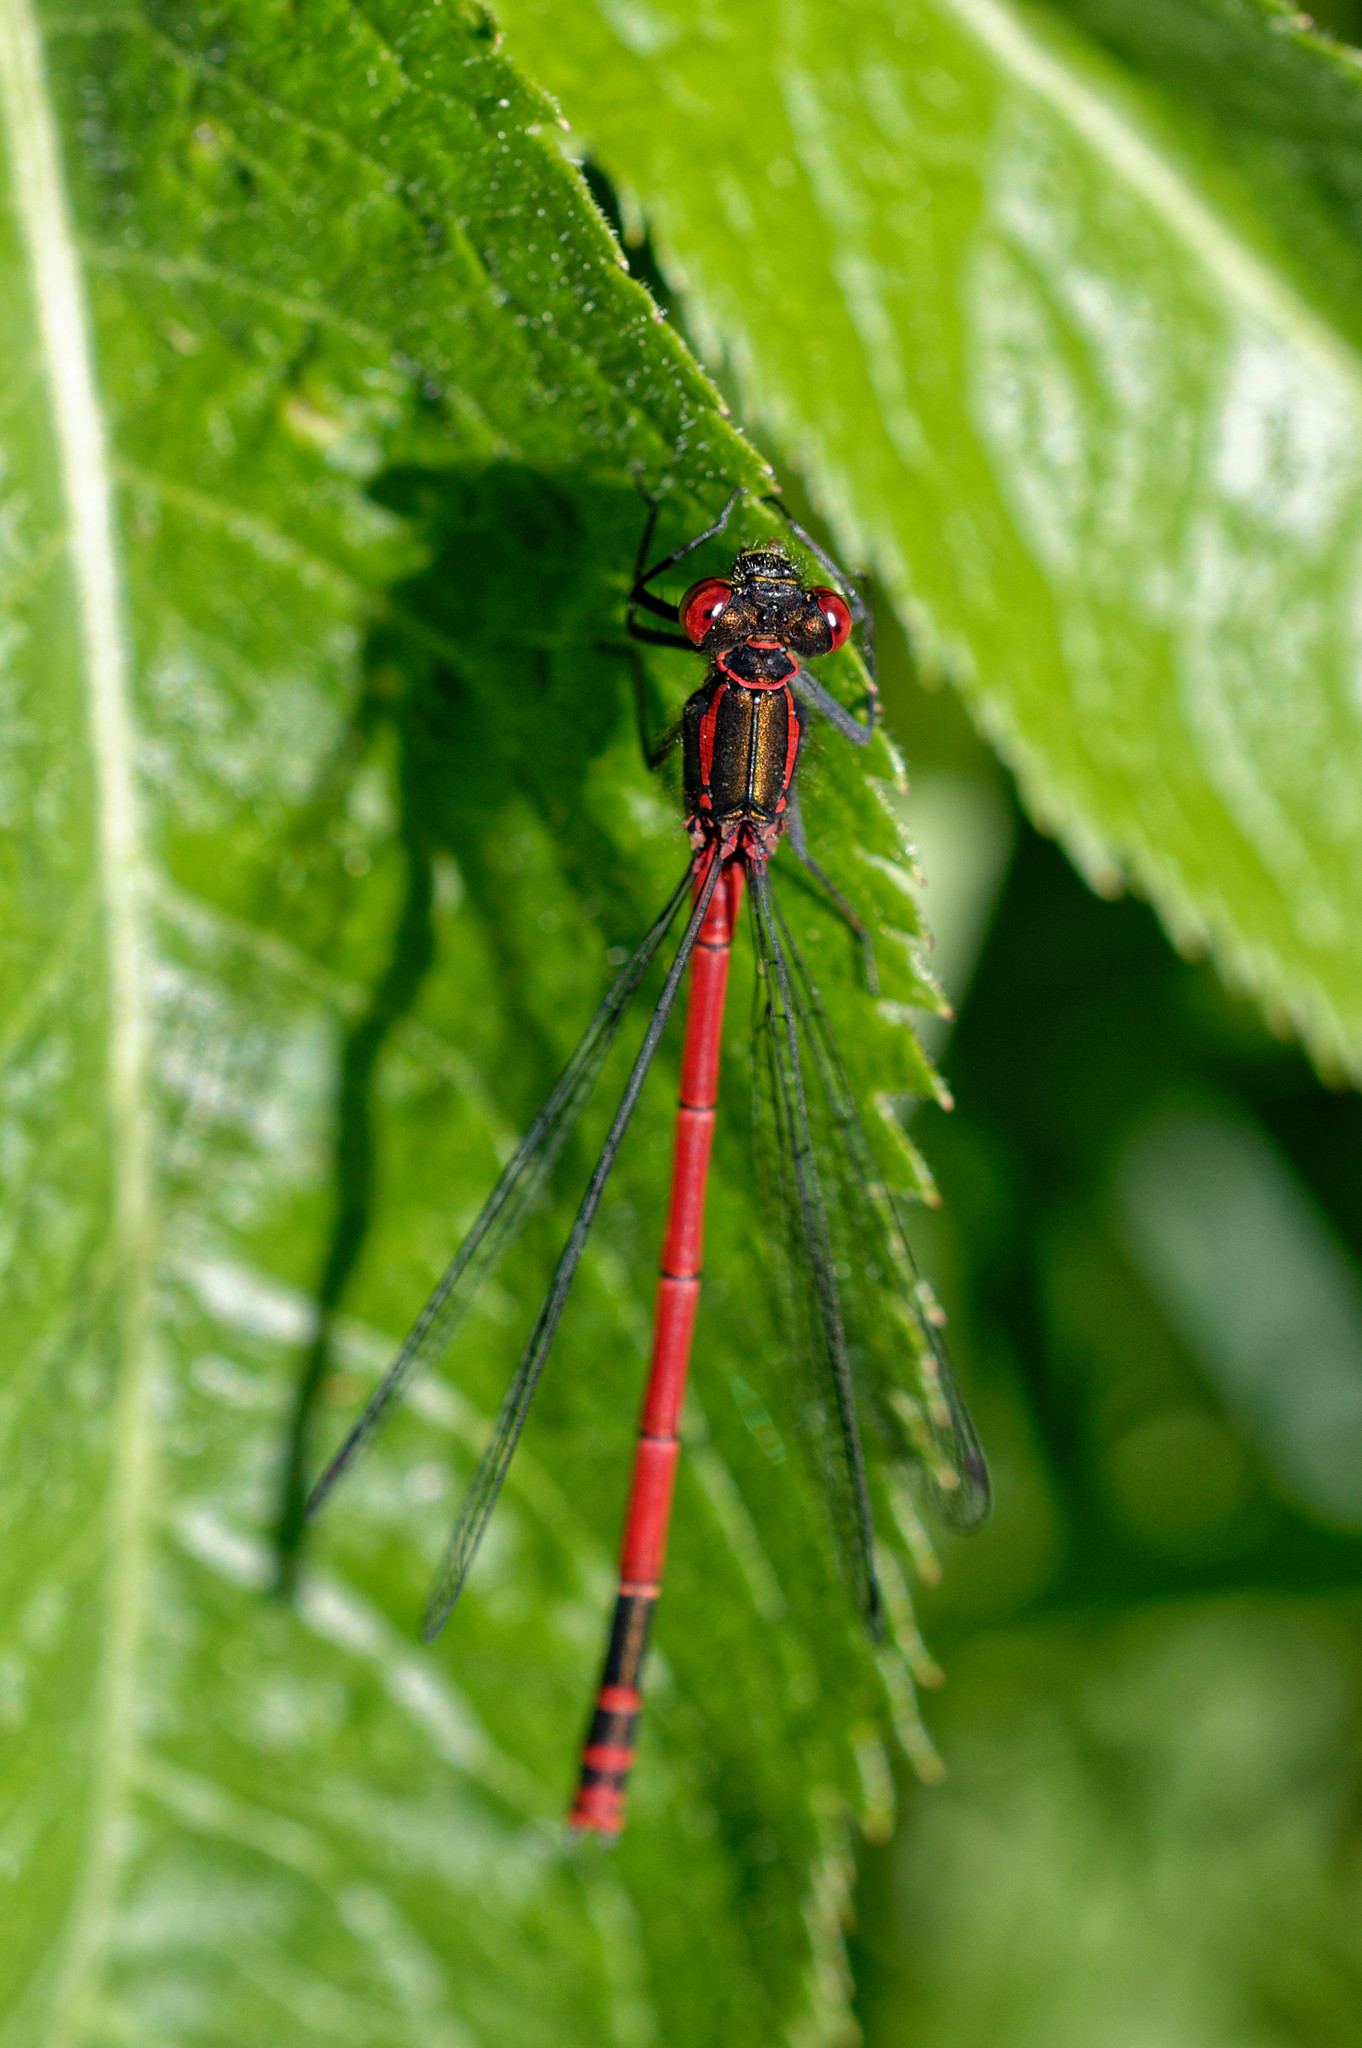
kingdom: Animalia
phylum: Arthropoda
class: Insecta
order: Odonata
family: Coenagrionidae
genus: Pyrrhosoma
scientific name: Pyrrhosoma nymphula
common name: Large red damsel
